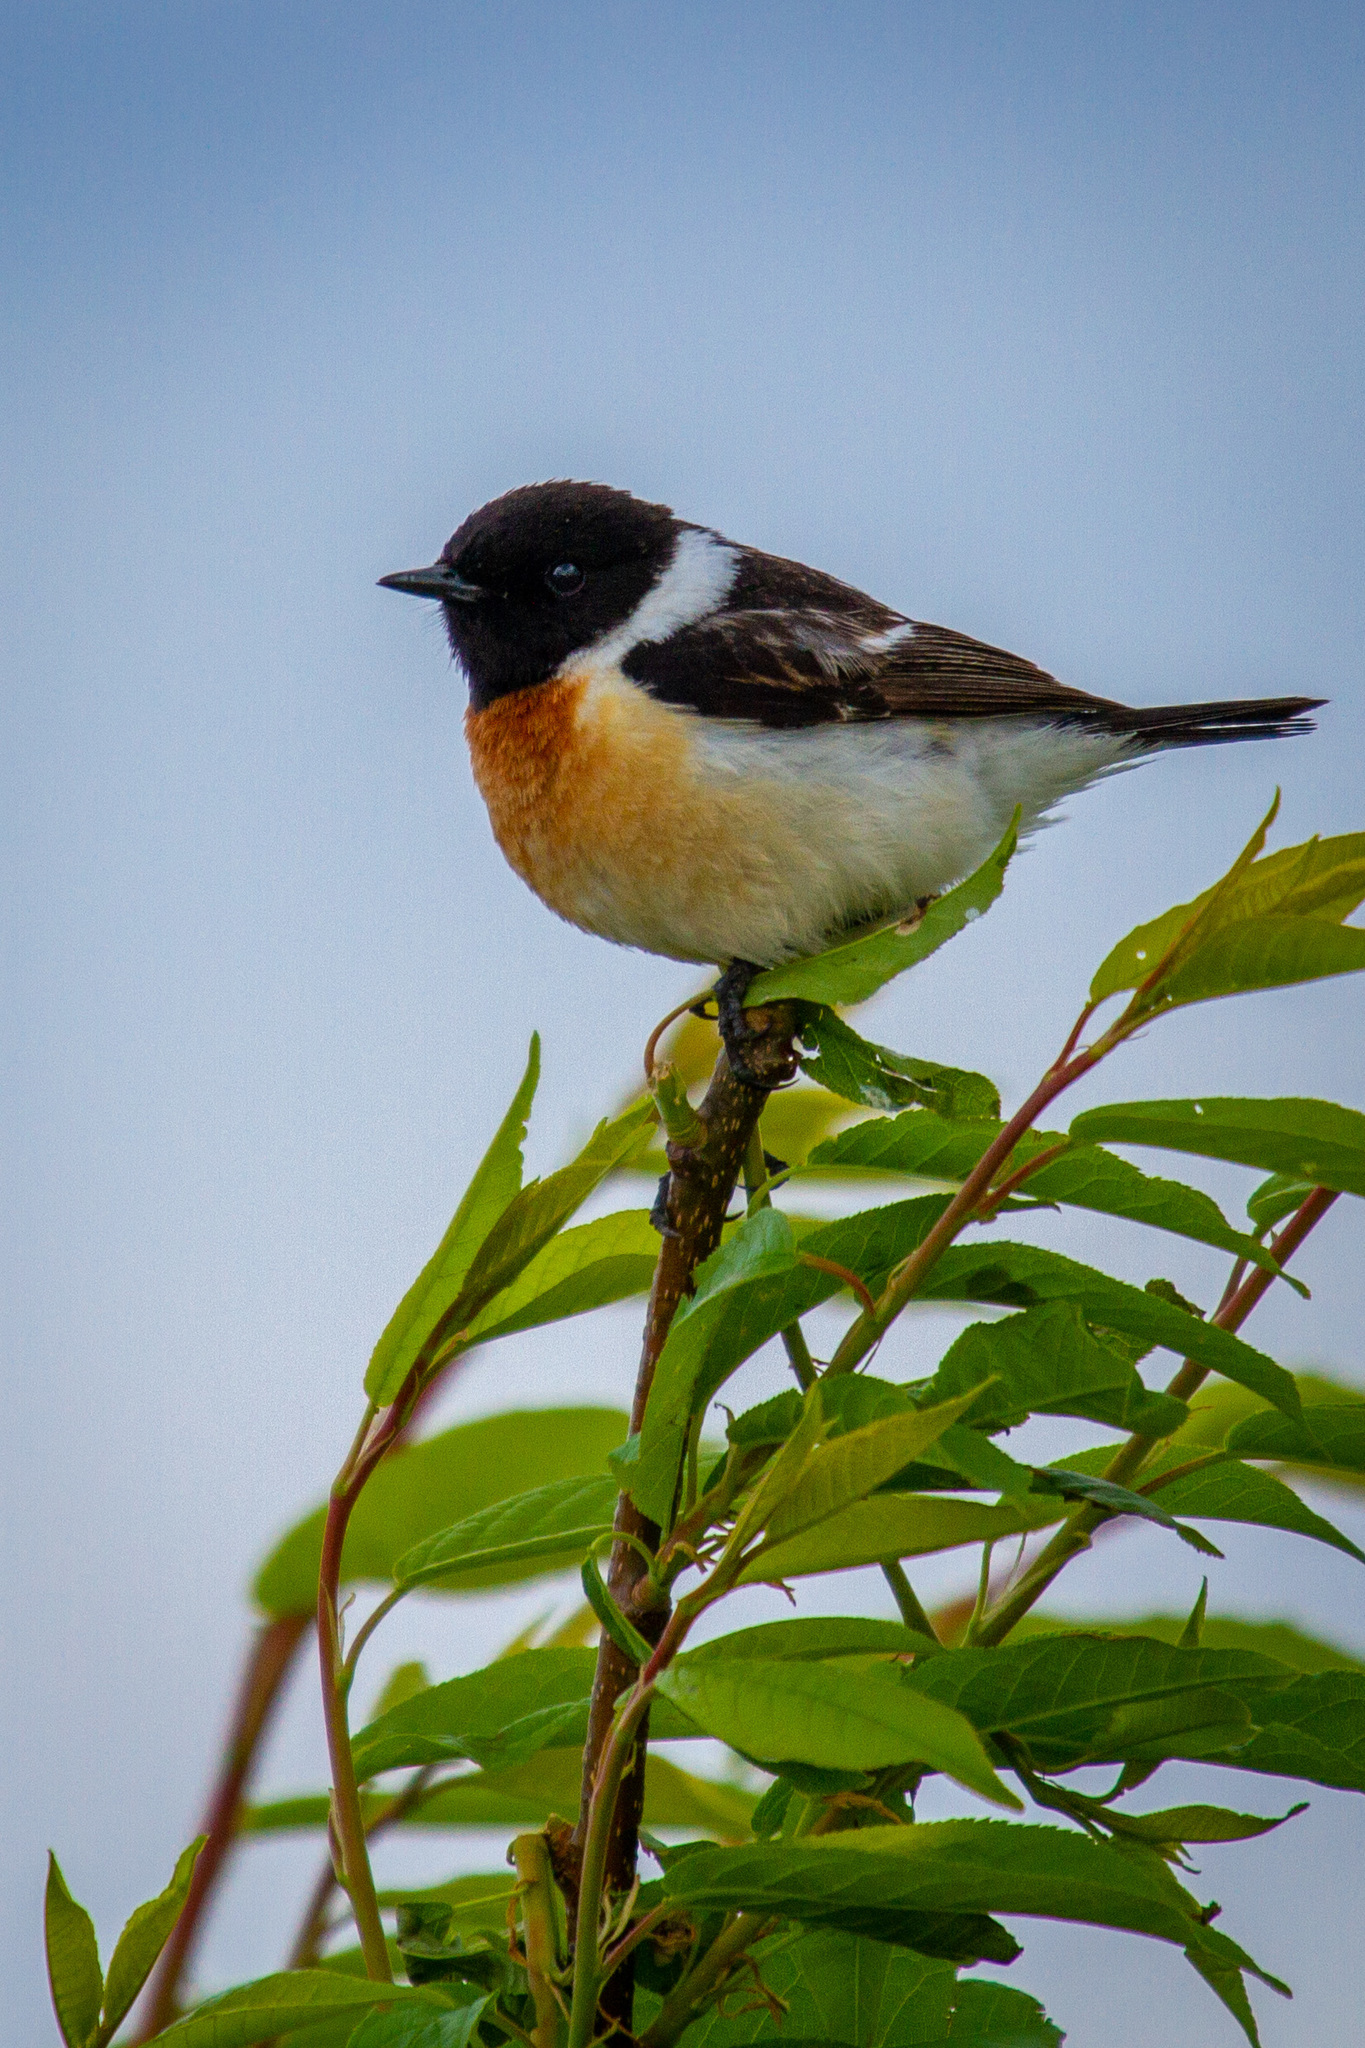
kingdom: Animalia
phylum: Chordata
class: Aves
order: Passeriformes
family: Muscicapidae
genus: Saxicola
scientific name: Saxicola maurus
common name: Siberian stonechat
